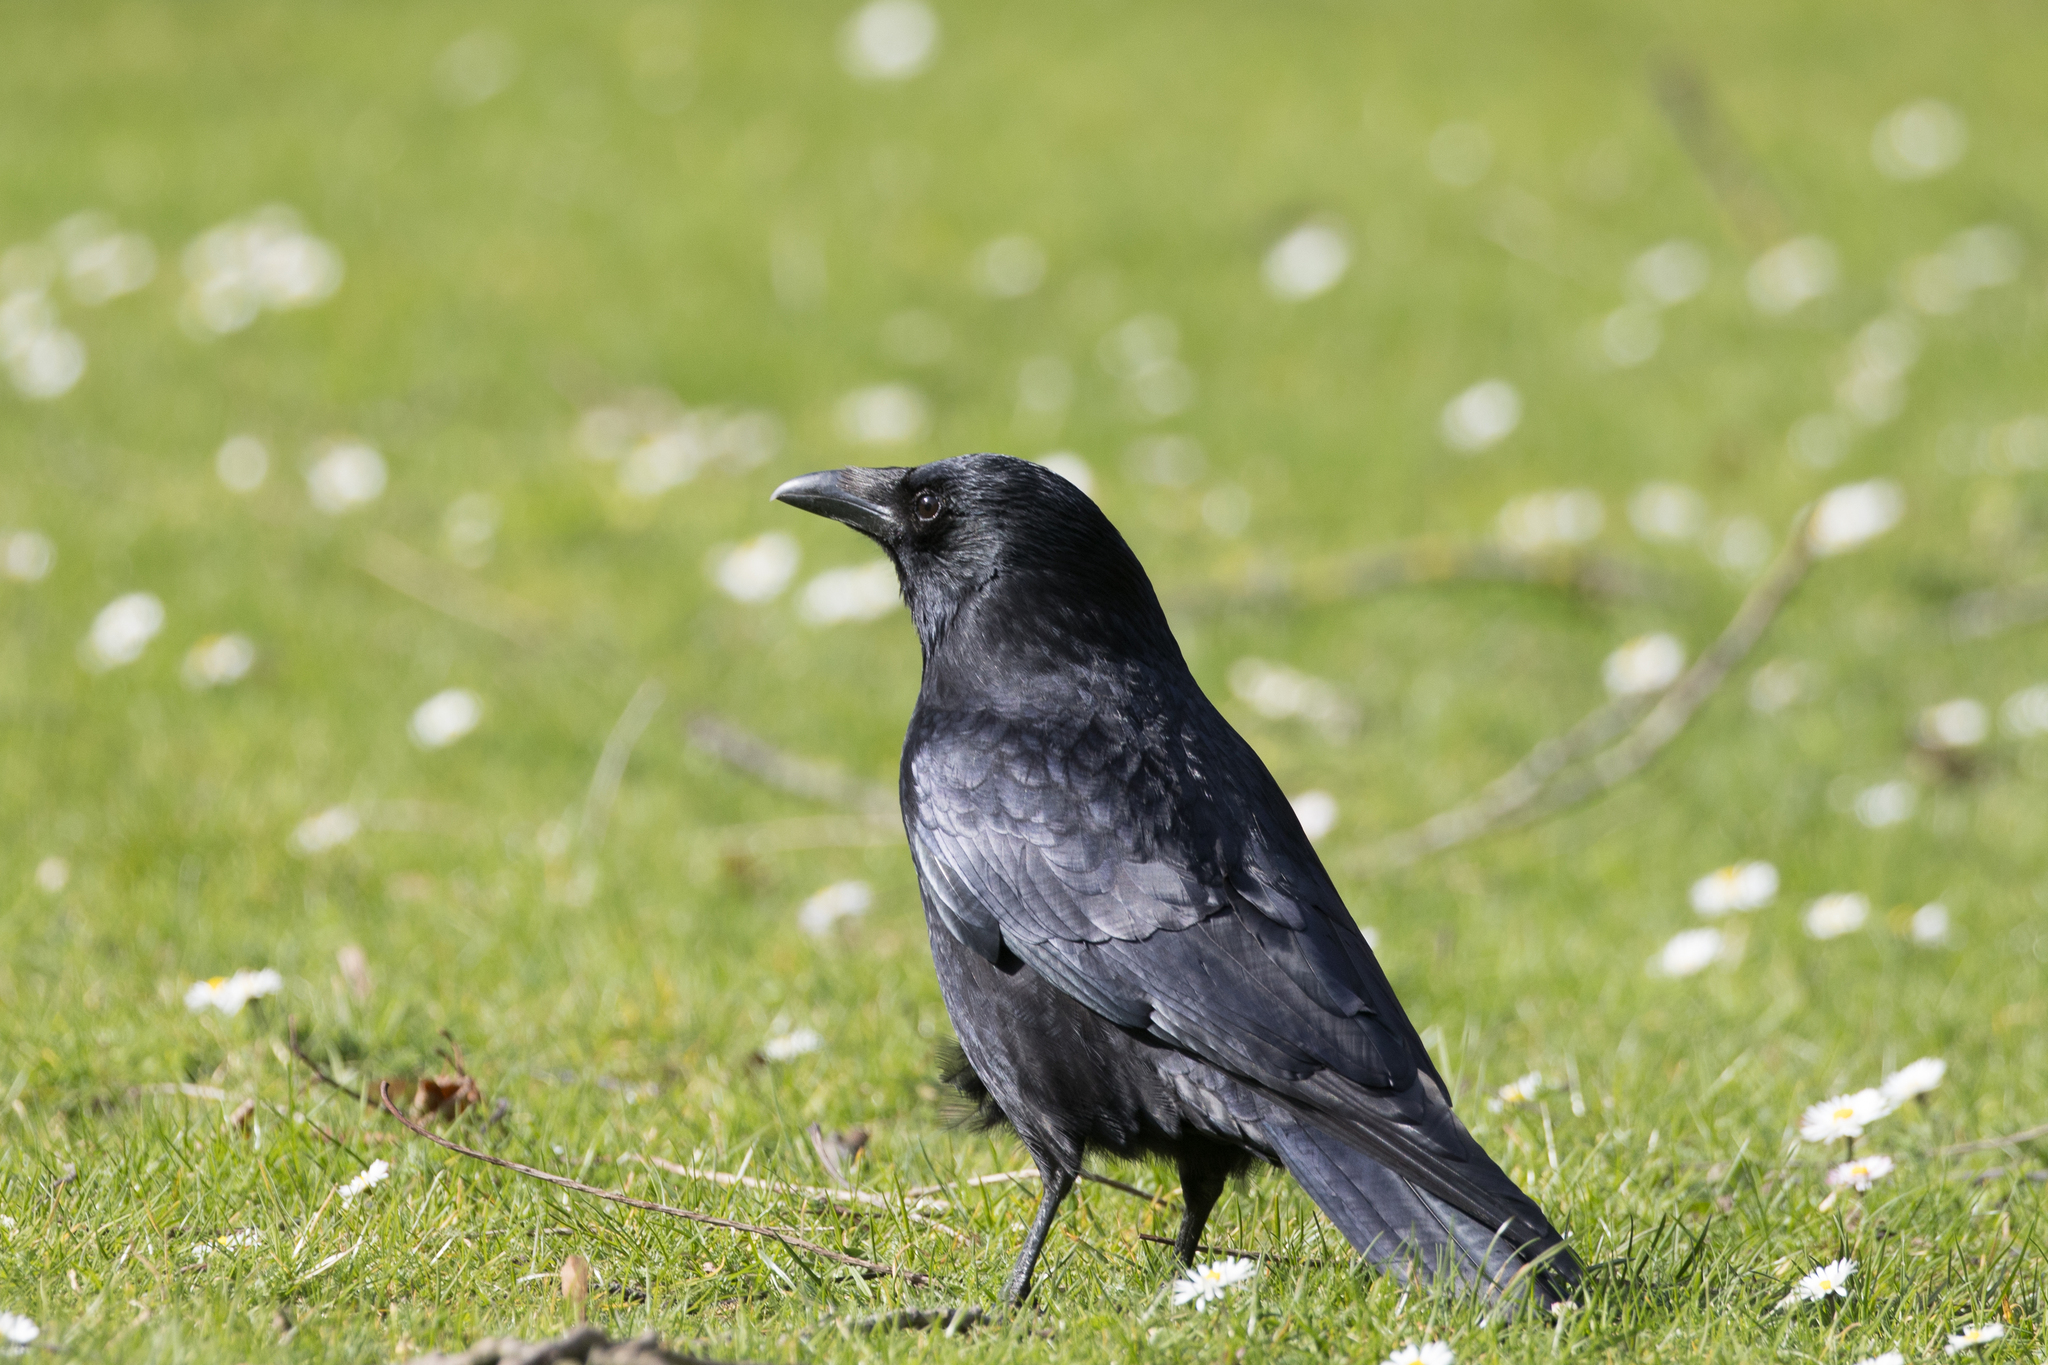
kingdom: Animalia
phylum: Chordata
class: Aves
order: Passeriformes
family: Corvidae
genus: Corvus
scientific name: Corvus corone
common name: Carrion crow
